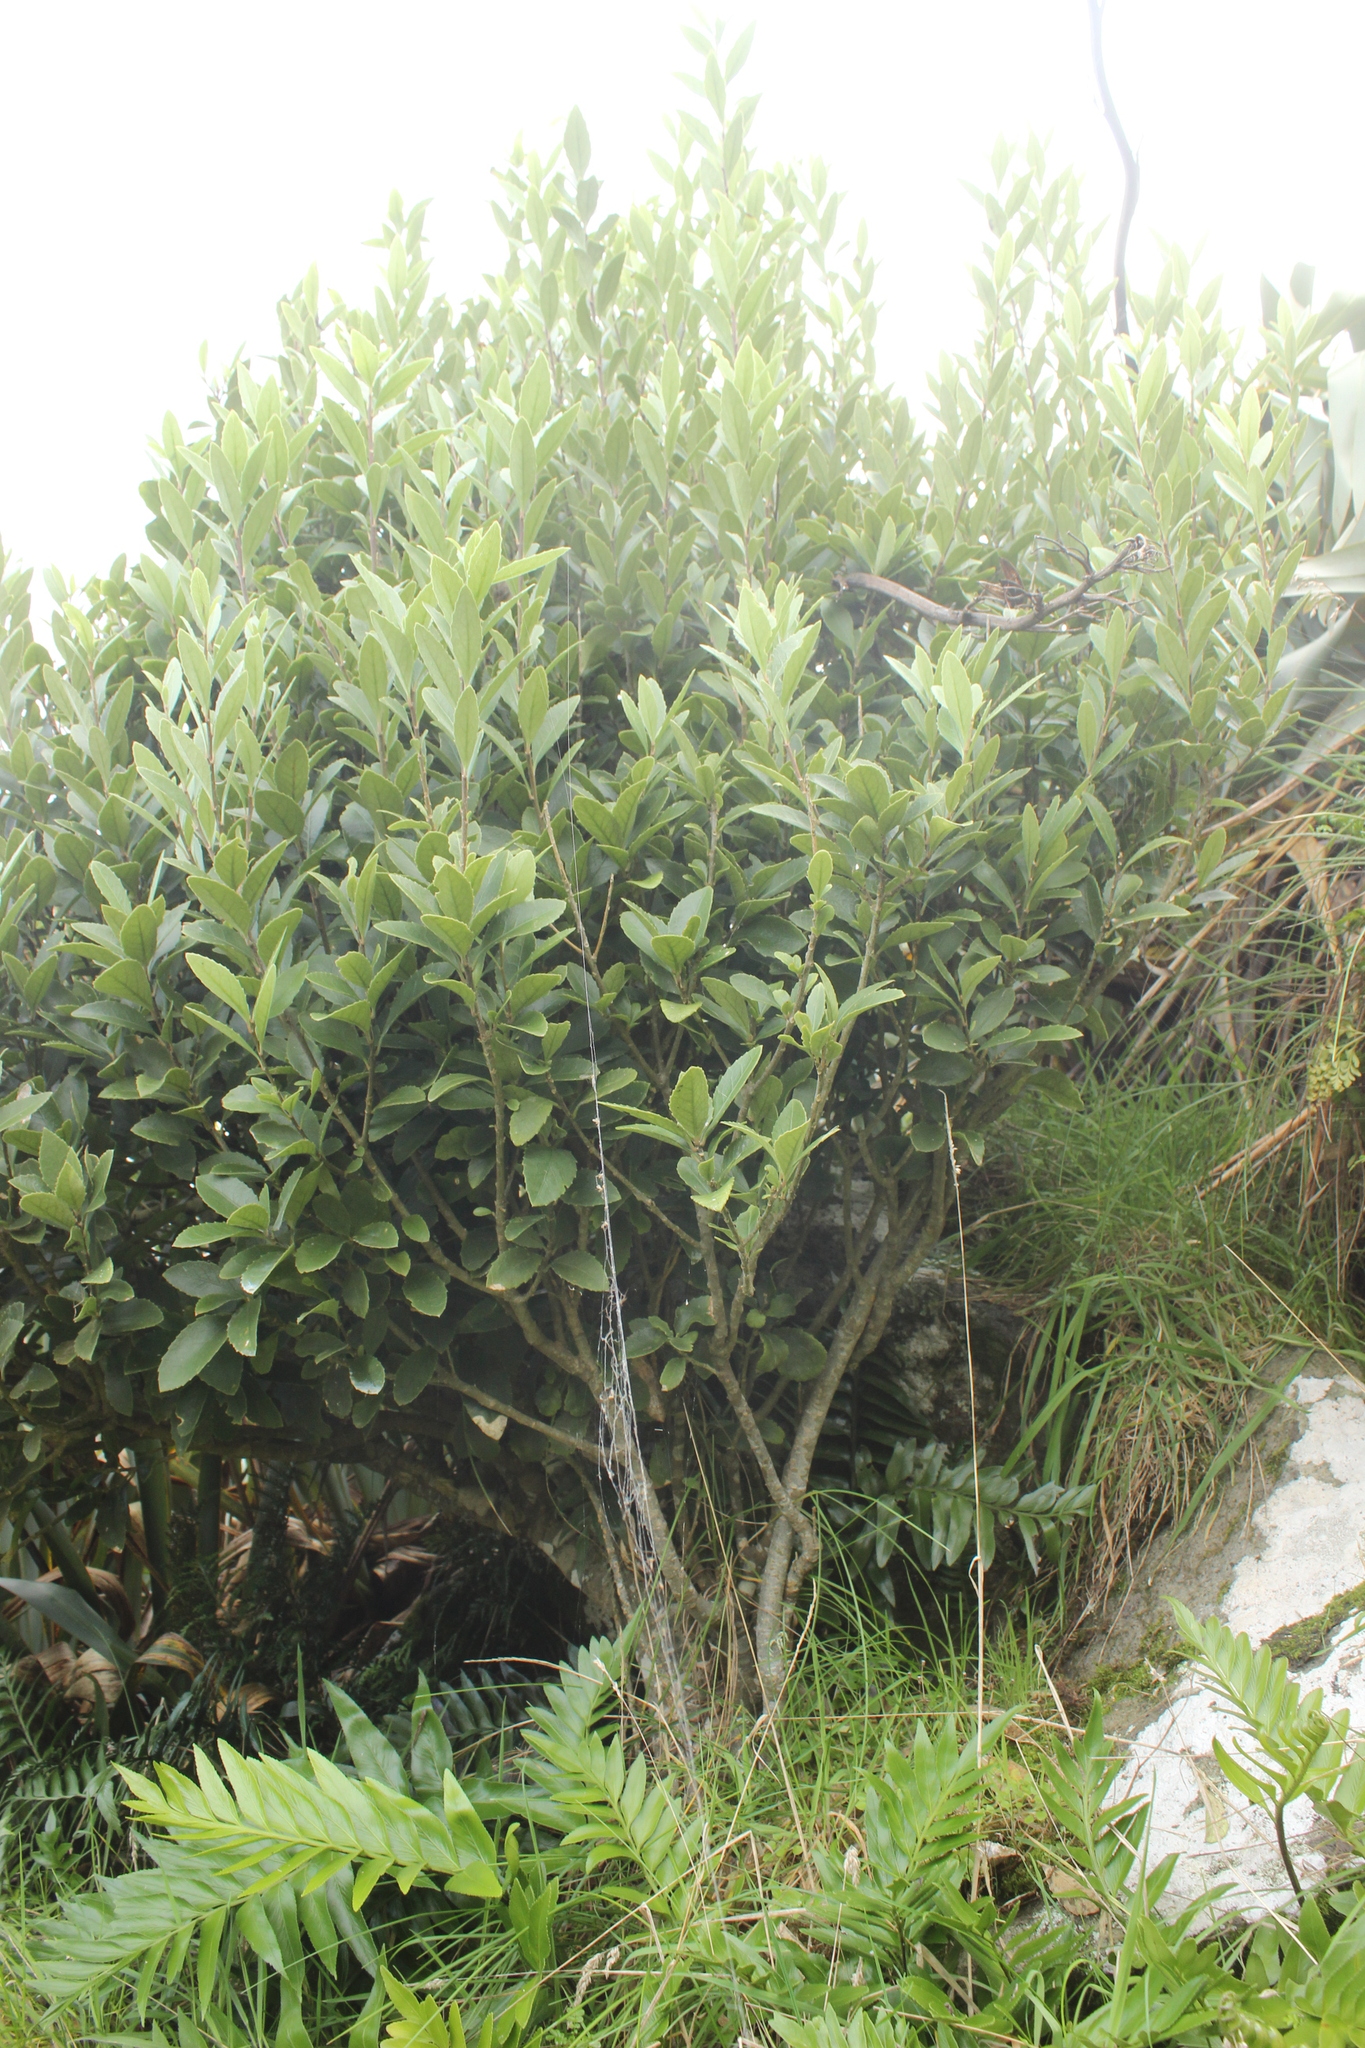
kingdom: Plantae
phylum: Tracheophyta
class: Magnoliopsida
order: Malpighiales
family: Violaceae
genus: Melicytus
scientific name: Melicytus chathamicus
